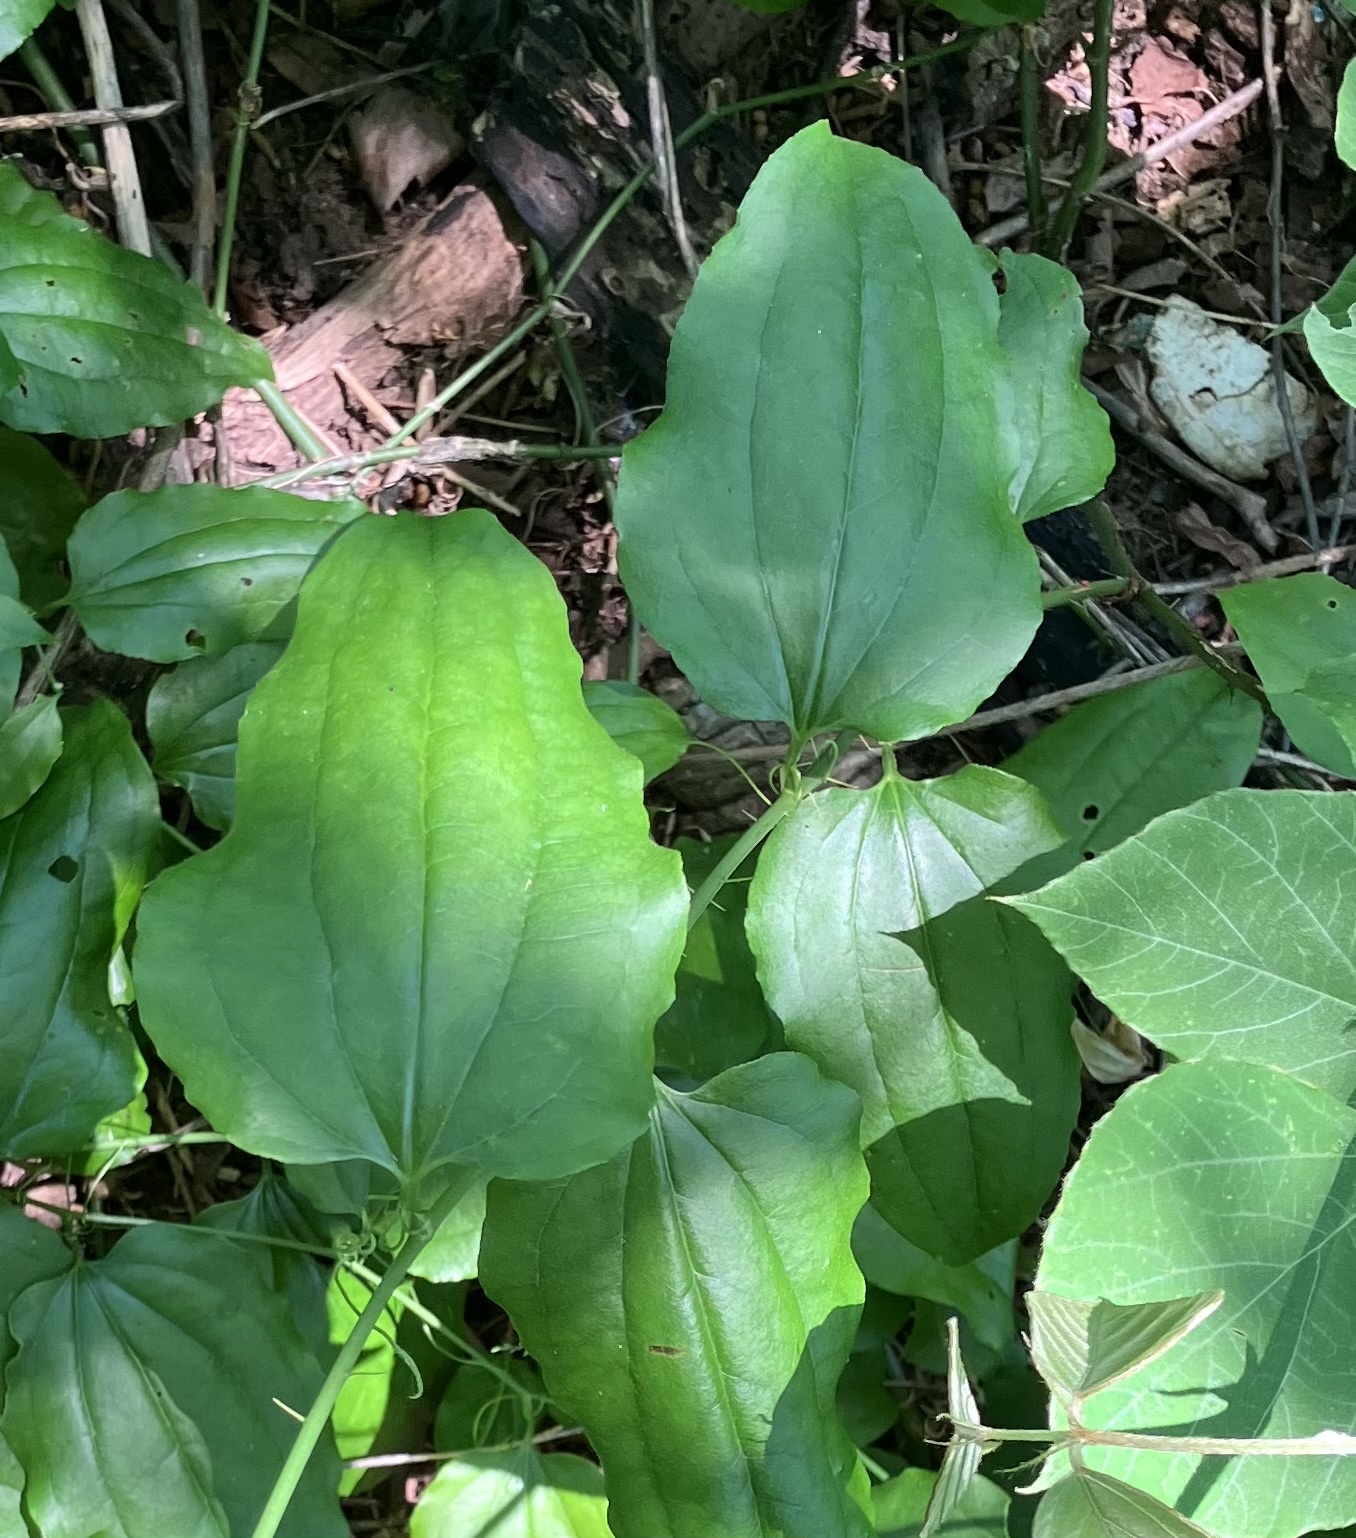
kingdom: Plantae
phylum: Tracheophyta
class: Liliopsida
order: Liliales
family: Smilacaceae
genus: Smilax
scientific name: Smilax tamnoides
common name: Hellfetter
